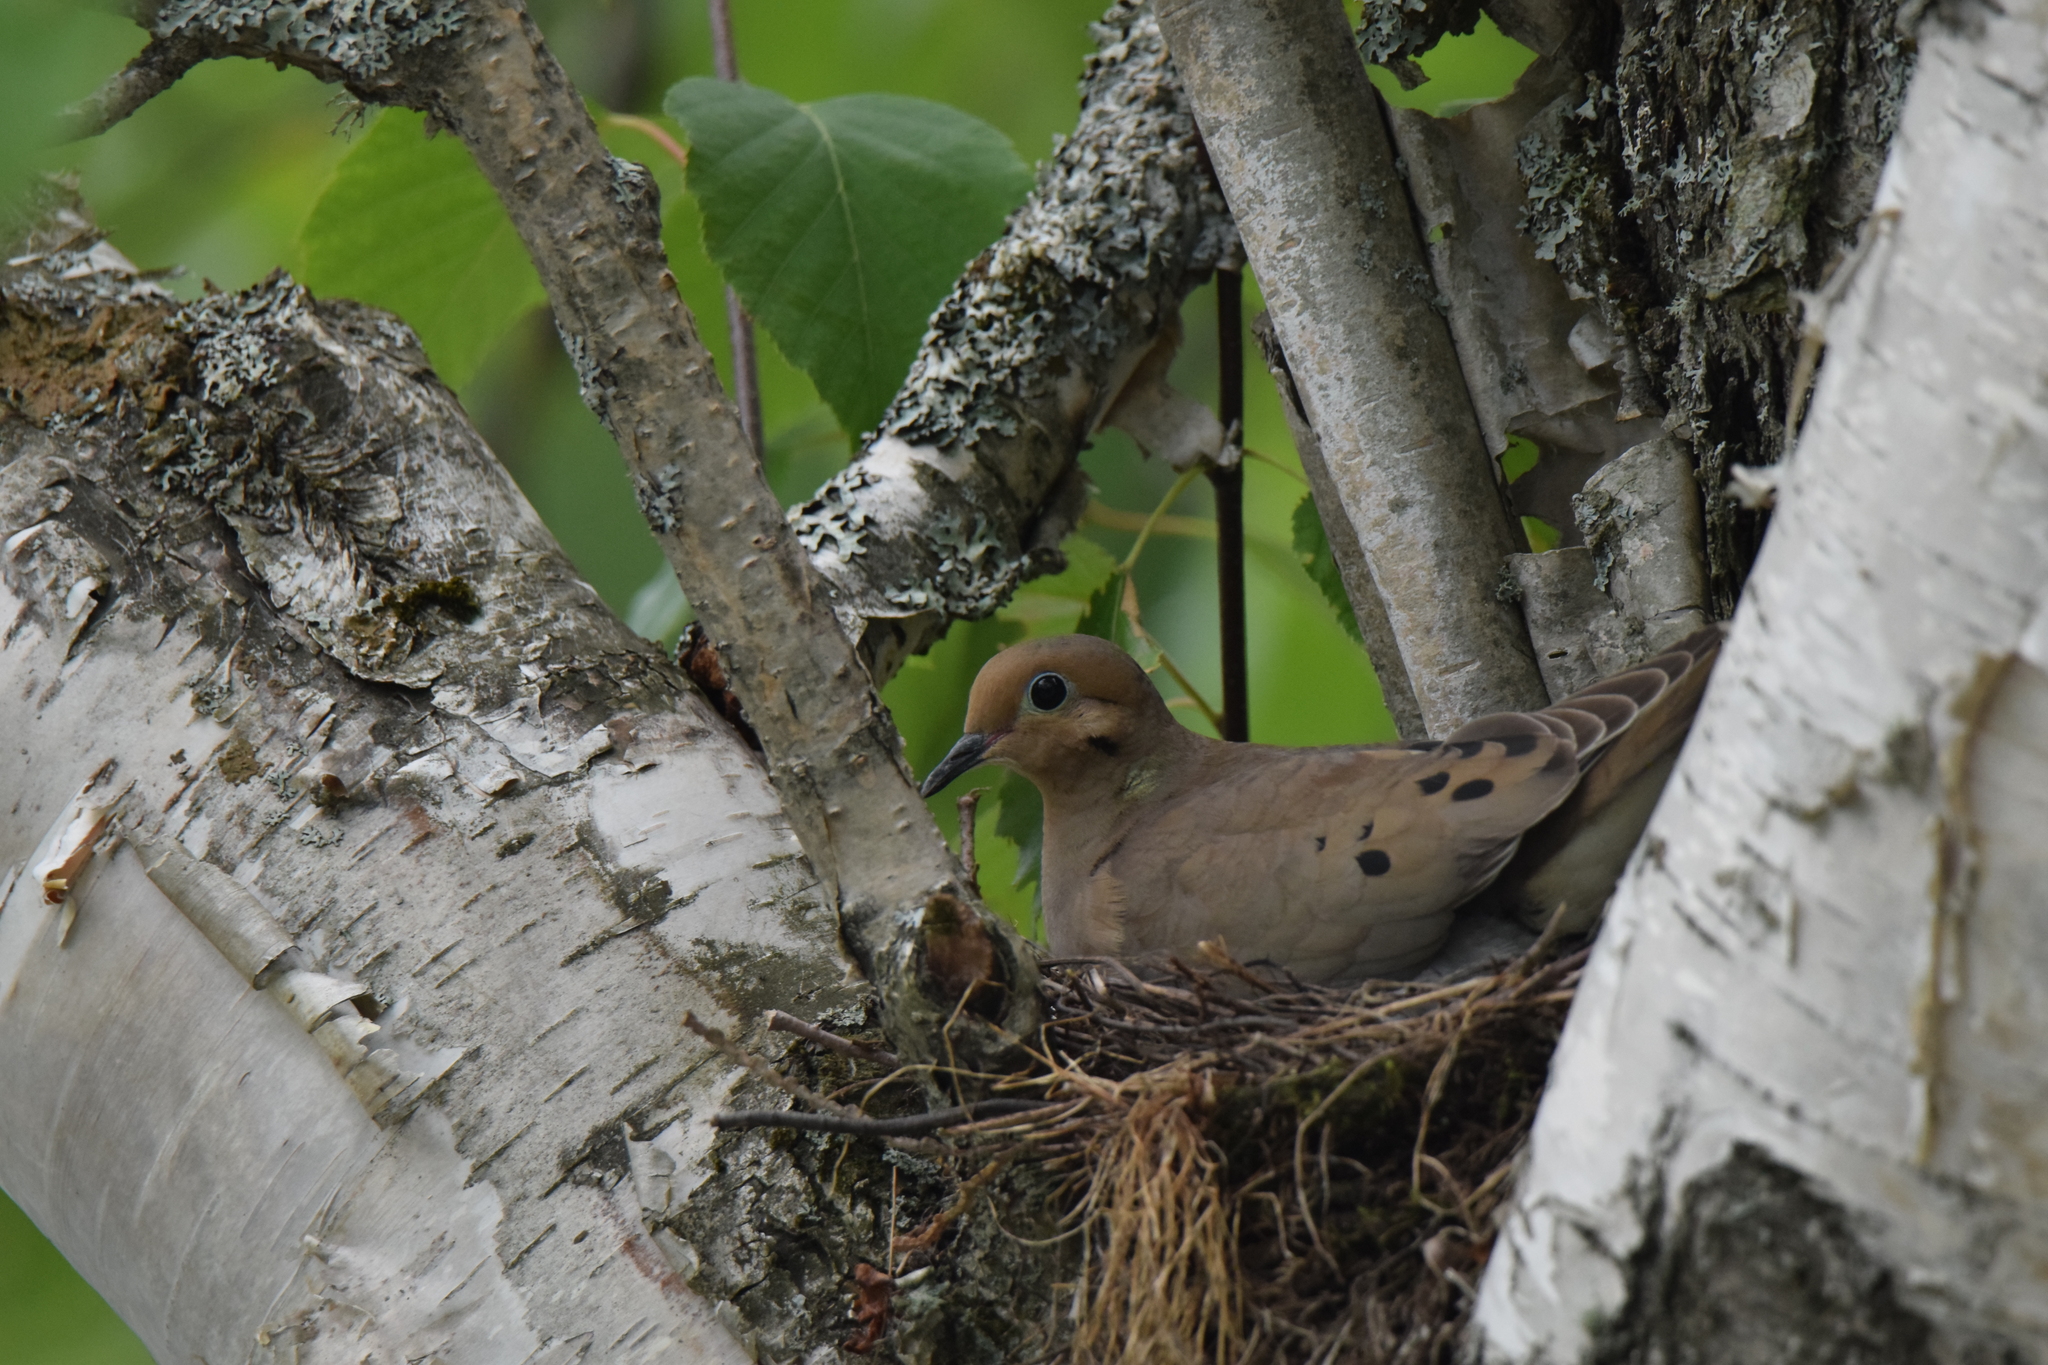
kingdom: Animalia
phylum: Chordata
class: Aves
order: Columbiformes
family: Columbidae
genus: Zenaida
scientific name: Zenaida macroura
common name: Mourning dove
